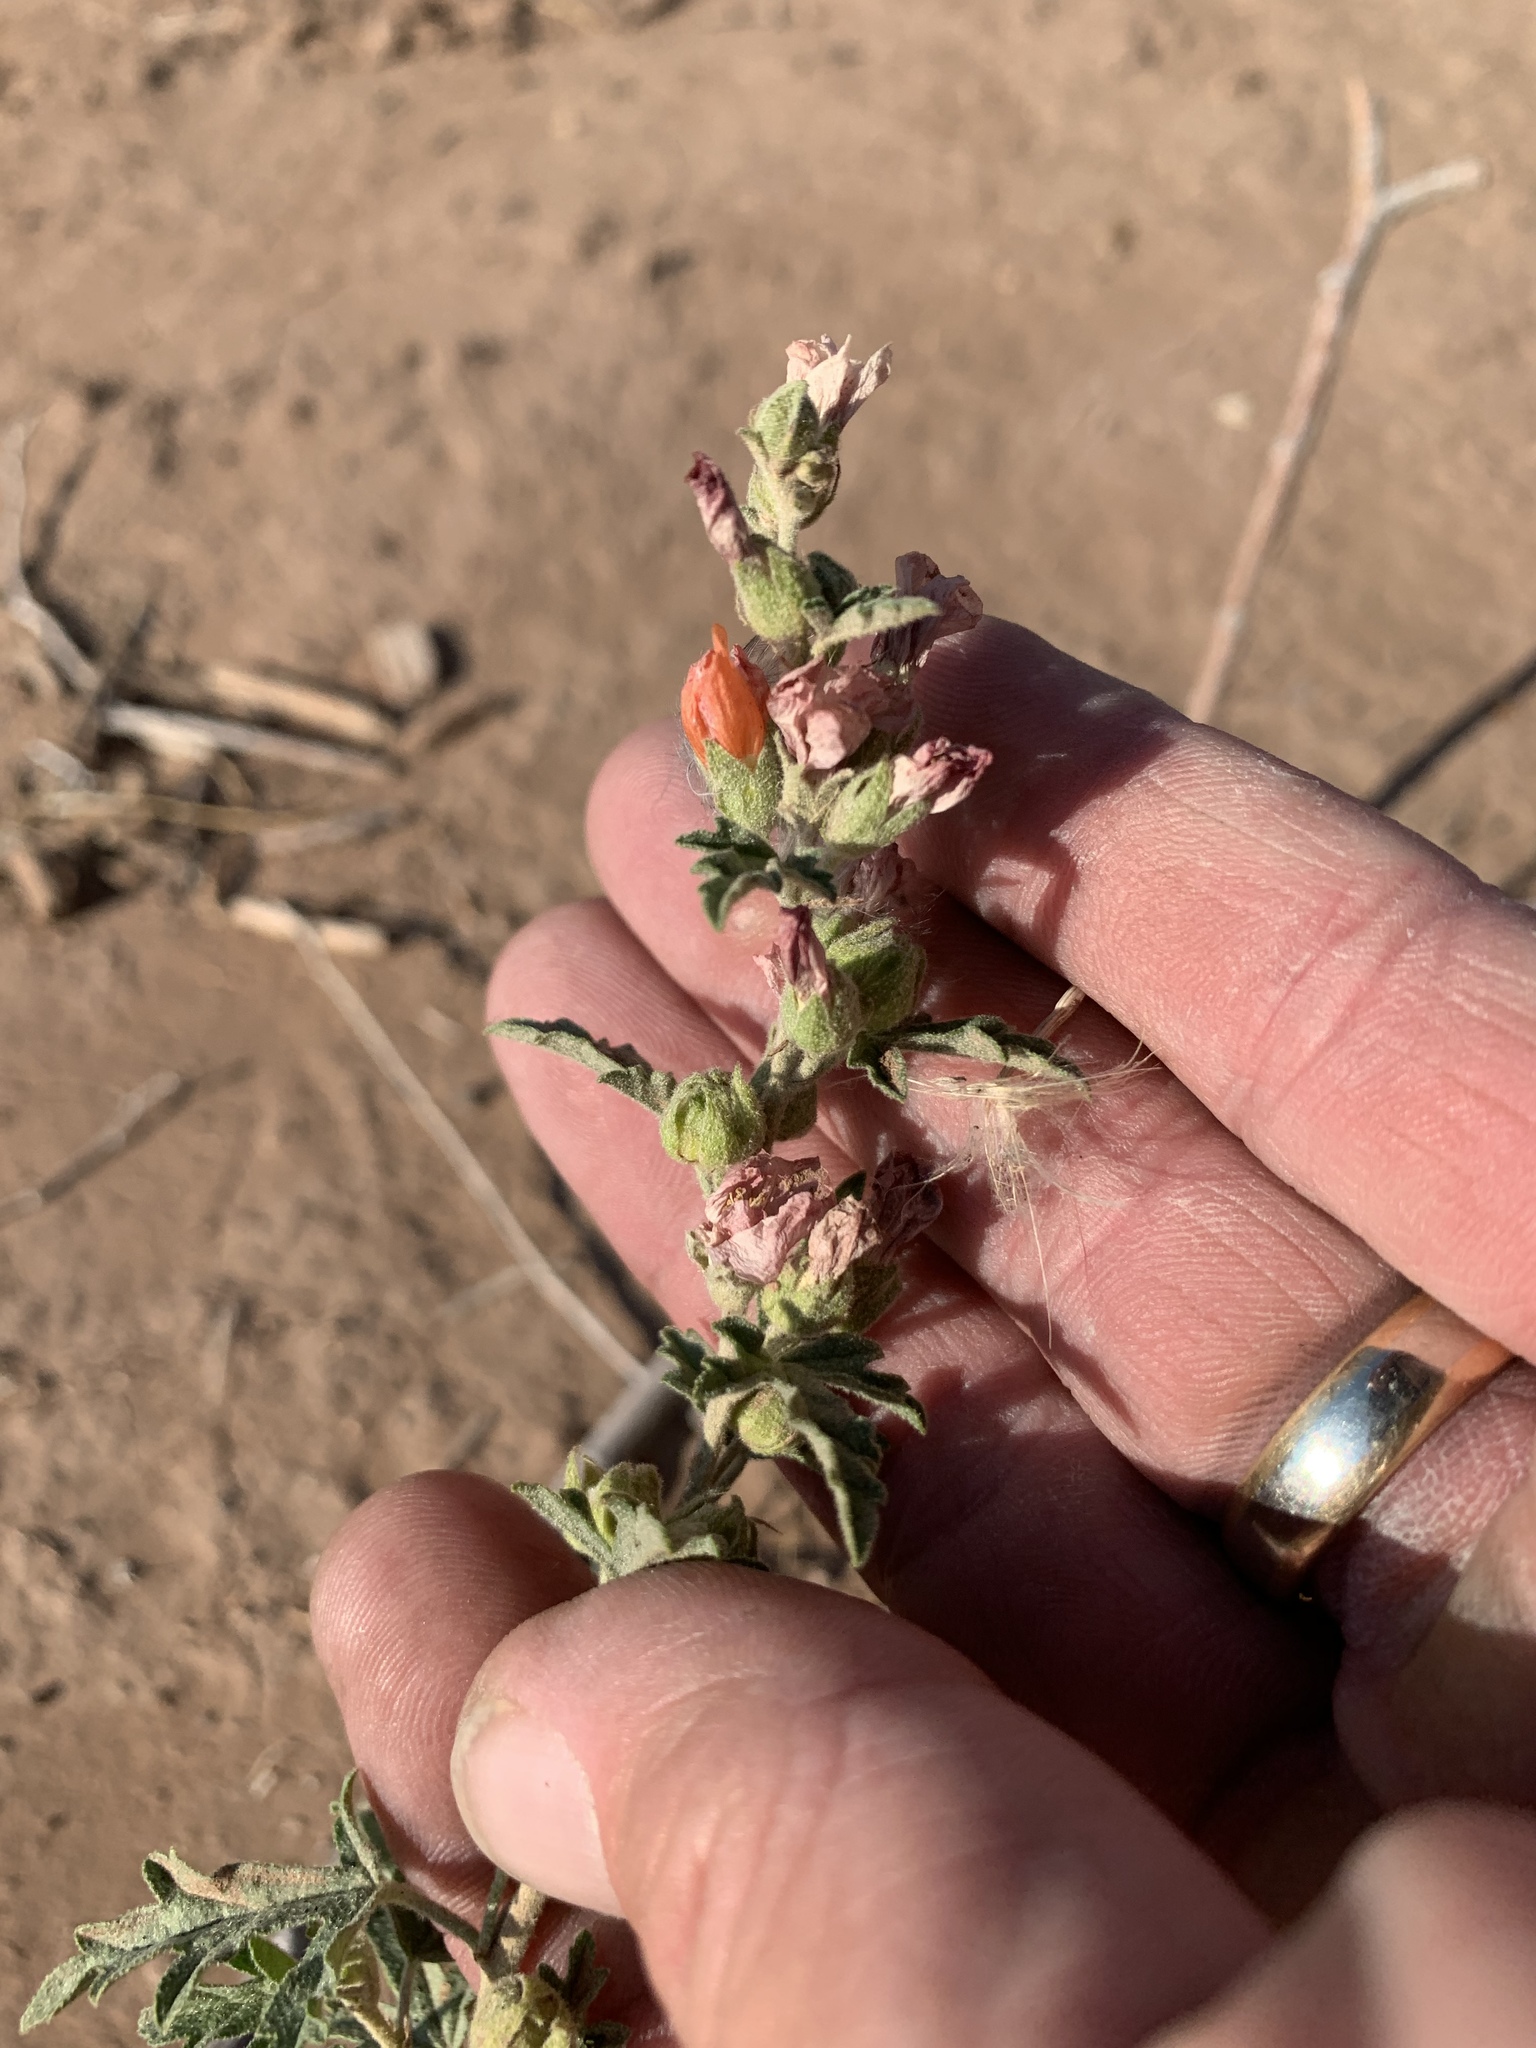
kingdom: Plantae
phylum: Tracheophyta
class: Magnoliopsida
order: Malvales
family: Malvaceae
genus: Sphaeralcea
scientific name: Sphaeralcea coccinea
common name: Moss-rose
